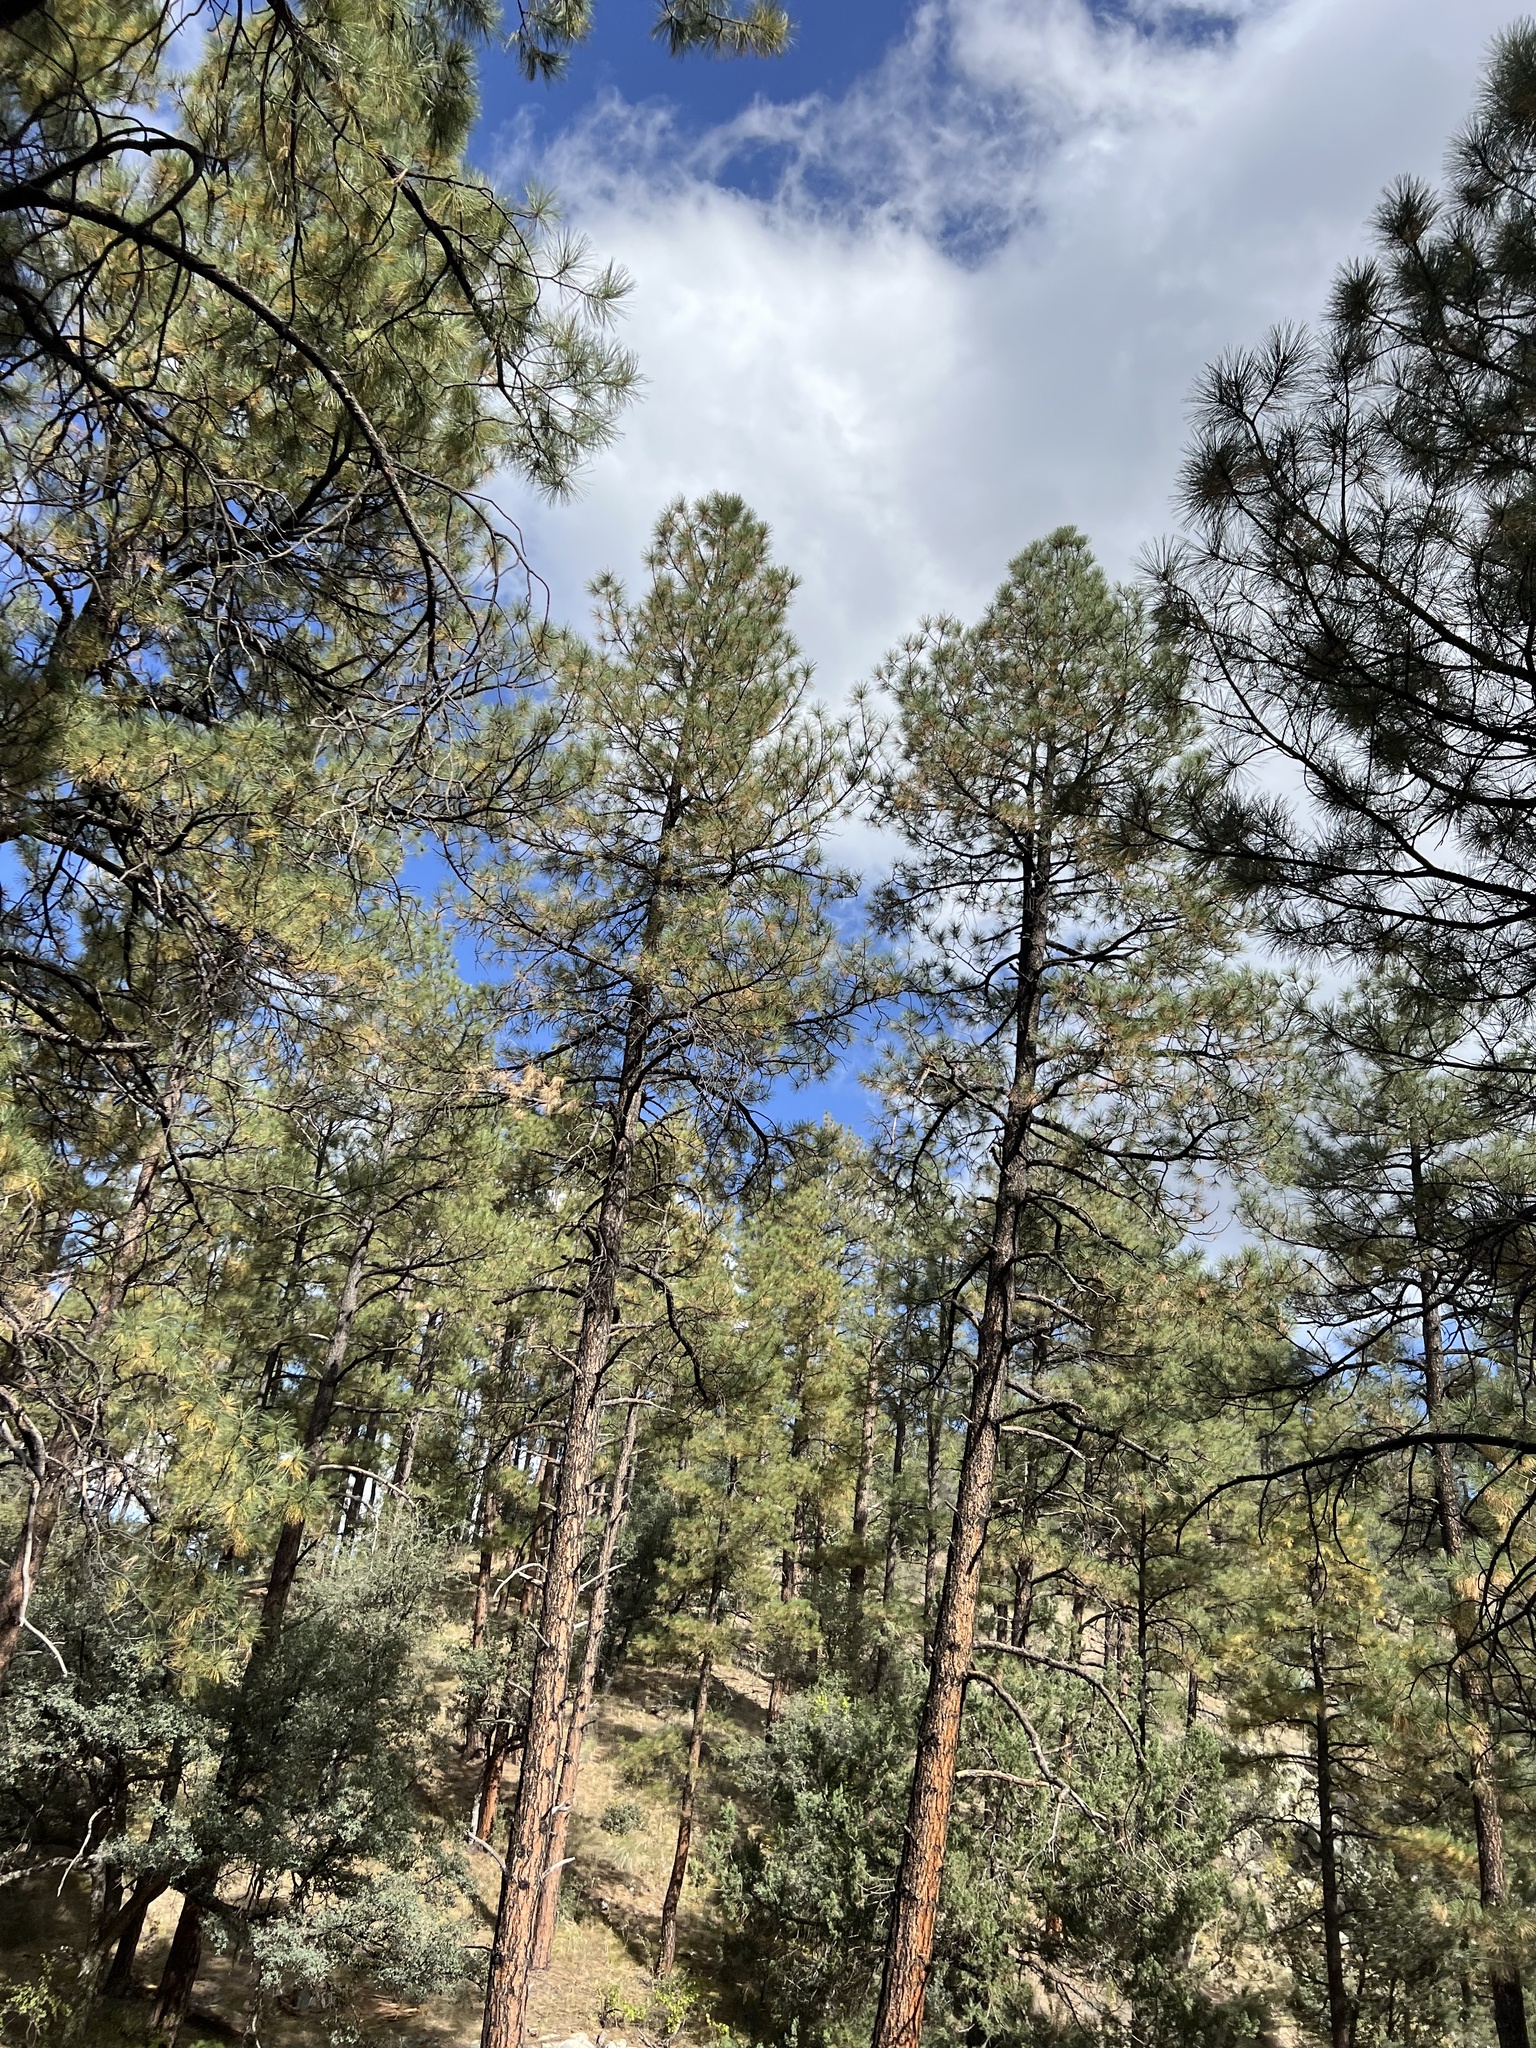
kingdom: Plantae
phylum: Tracheophyta
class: Pinopsida
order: Pinales
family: Pinaceae
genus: Pinus
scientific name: Pinus ponderosa
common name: Western yellow-pine
